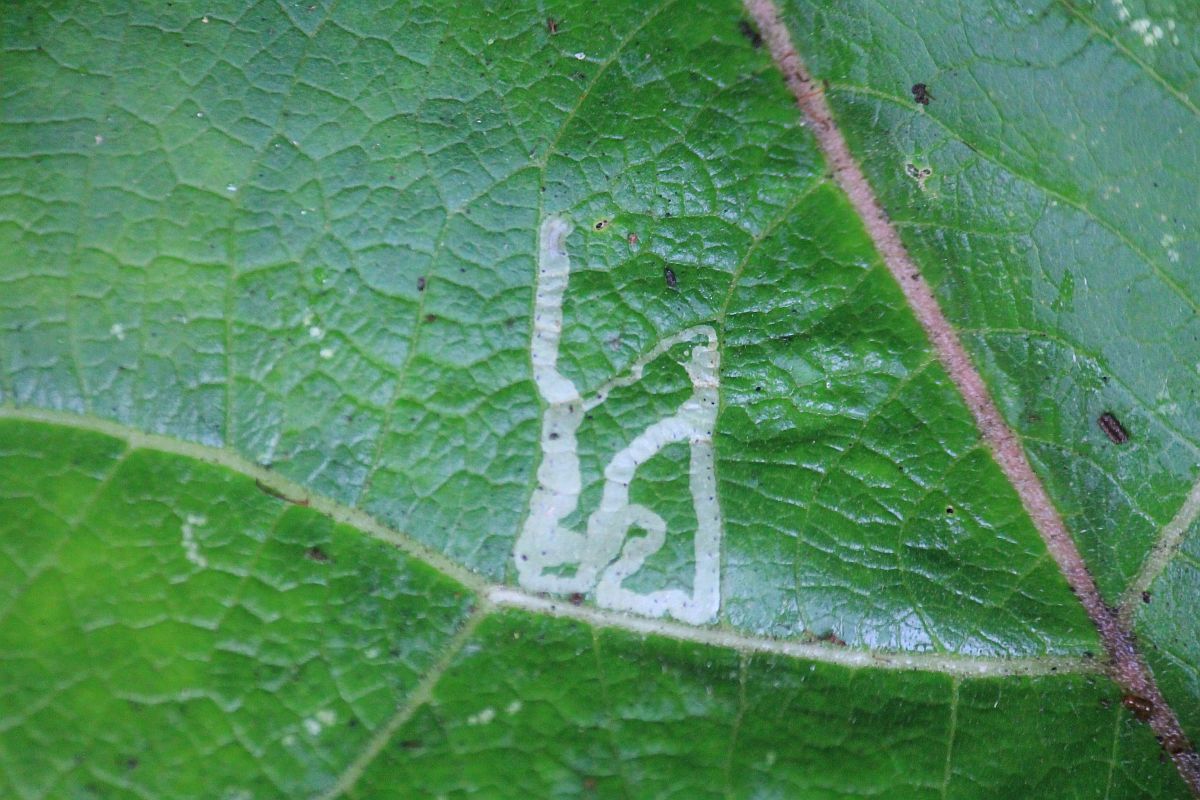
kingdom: Animalia
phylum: Arthropoda
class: Insecta
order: Diptera
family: Agromyzidae
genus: Phytomyza
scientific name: Phytomyza lappae
